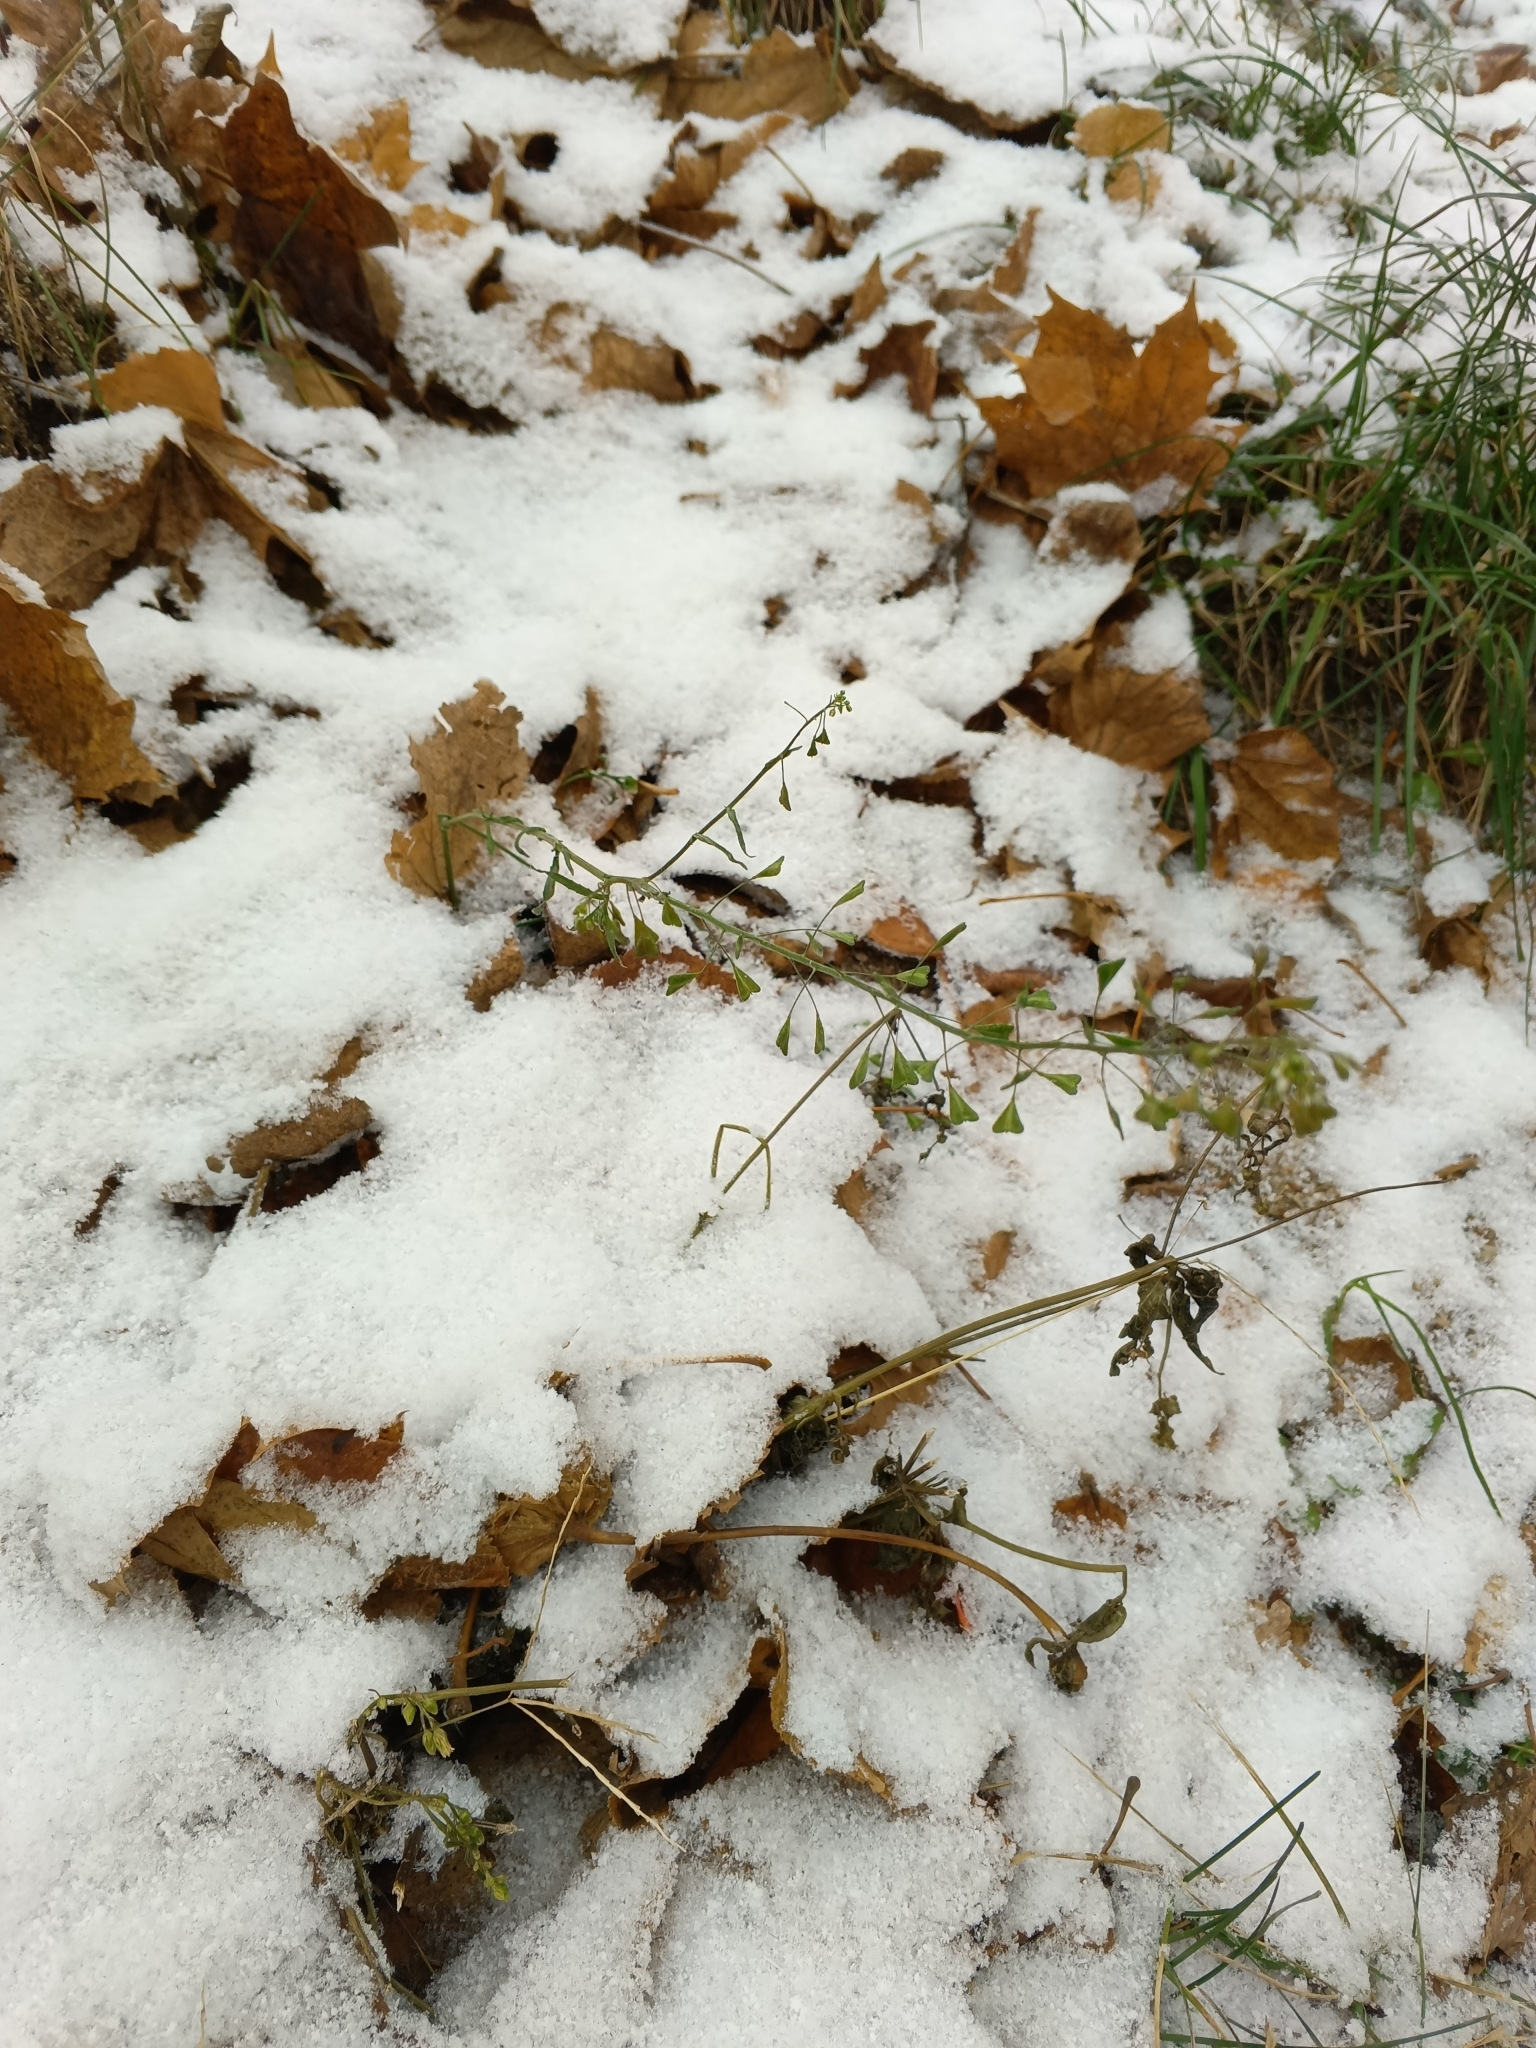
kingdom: Plantae
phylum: Tracheophyta
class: Magnoliopsida
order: Brassicales
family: Brassicaceae
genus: Capsella
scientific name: Capsella bursa-pastoris
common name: Shepherd's purse
